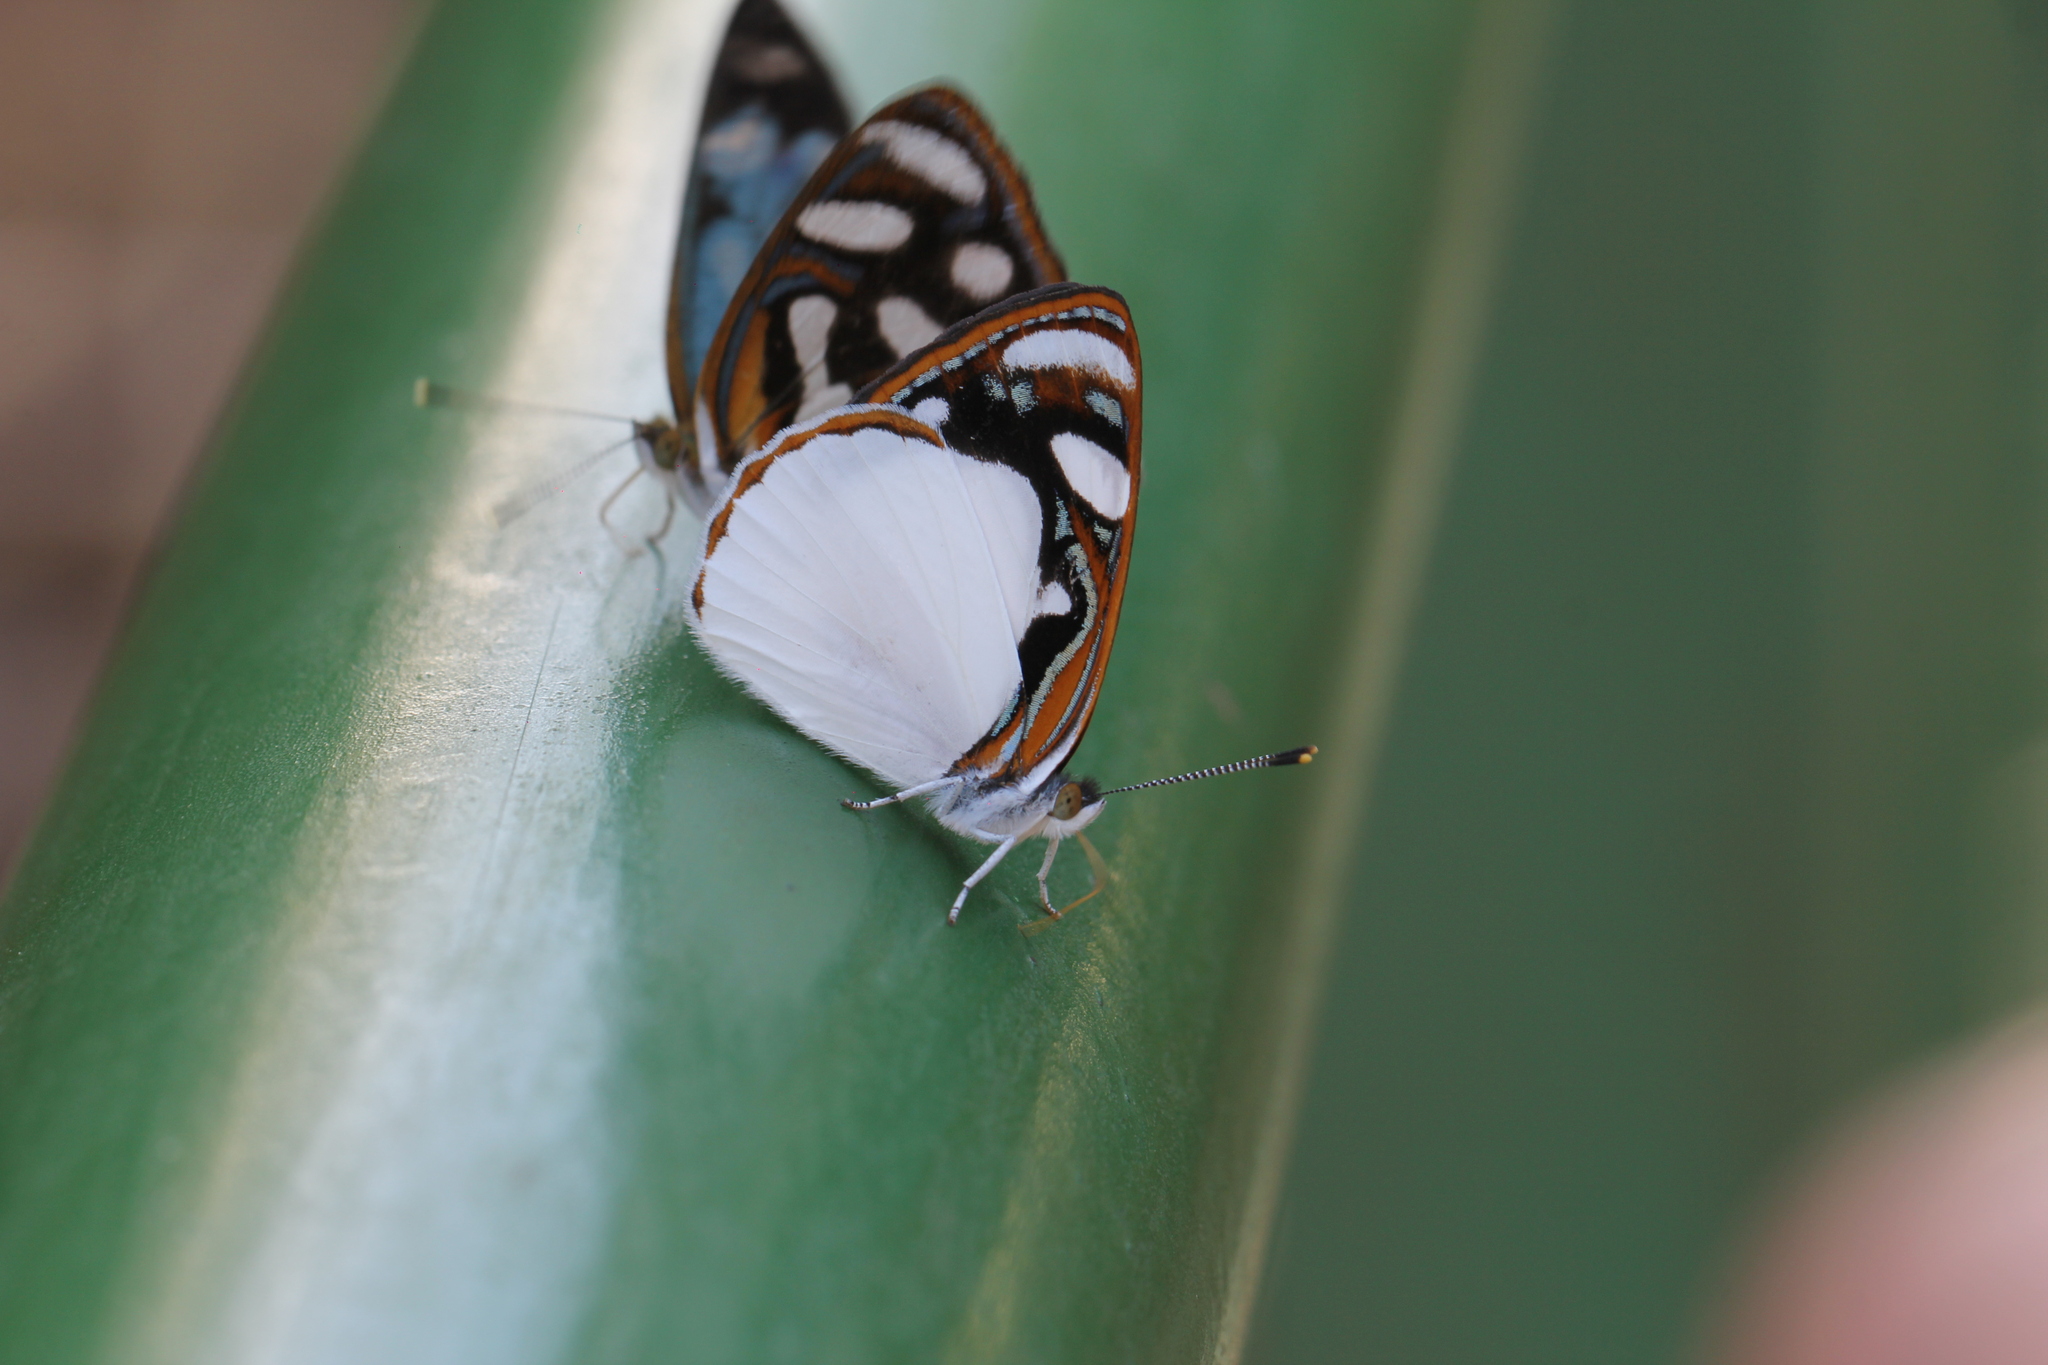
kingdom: Animalia
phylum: Arthropoda
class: Insecta
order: Lepidoptera
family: Nymphalidae
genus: Dynamine
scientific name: Dynamine coenus
